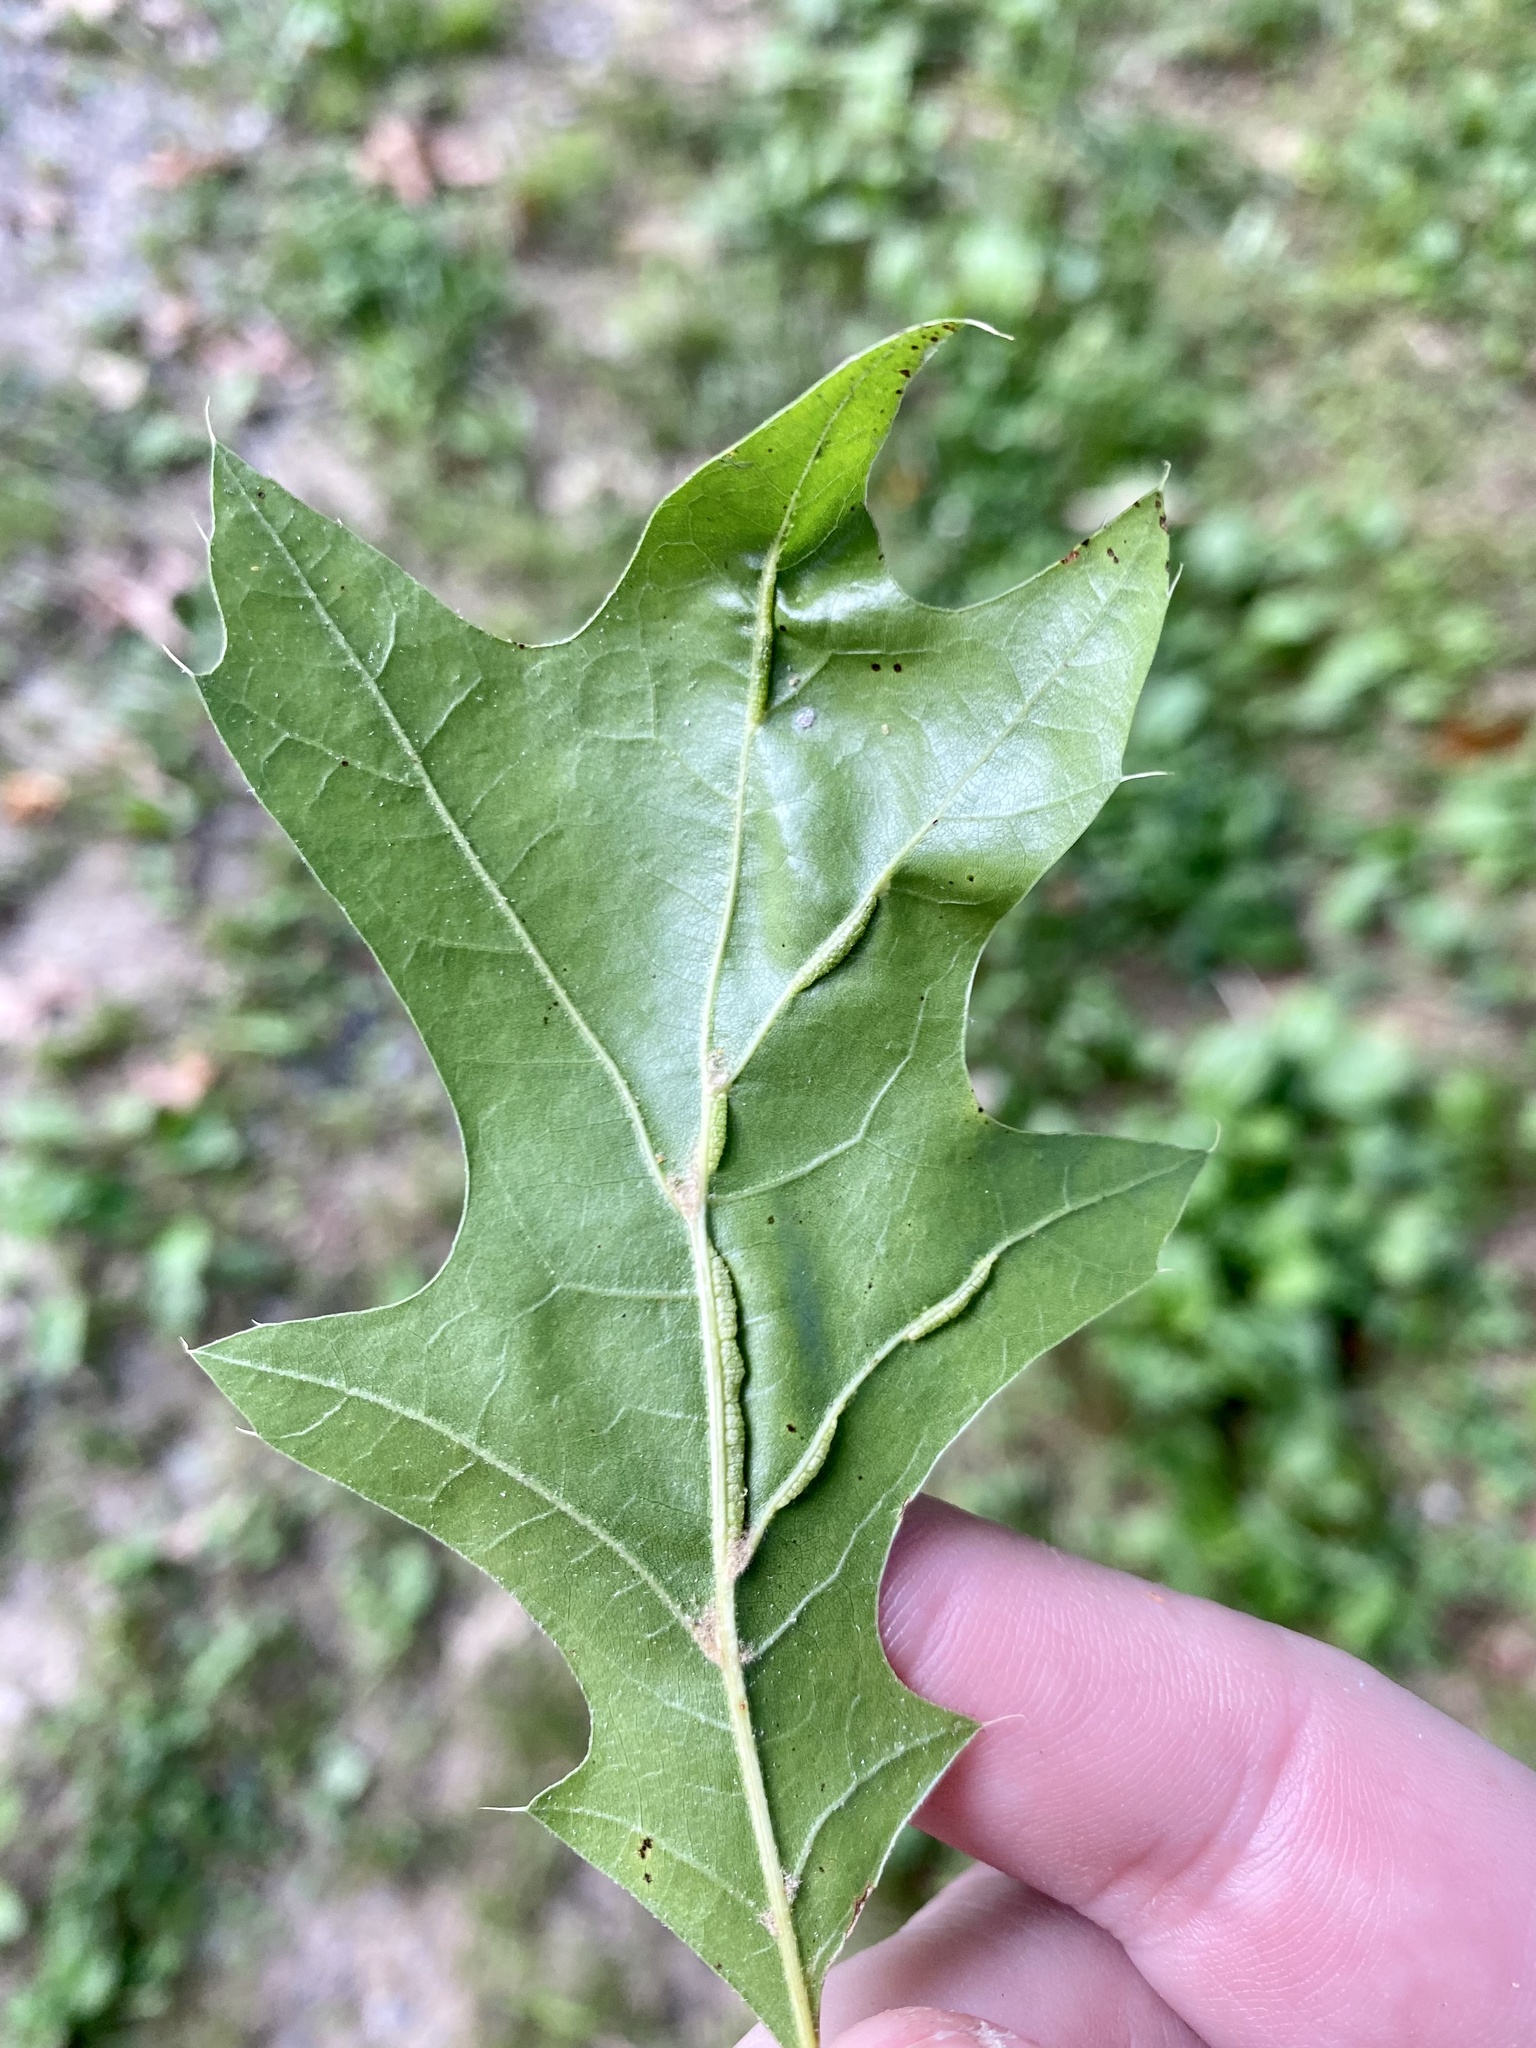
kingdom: Animalia
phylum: Arthropoda
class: Insecta
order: Diptera
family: Cecidomyiidae
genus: Macrodiplosis
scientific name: Macrodiplosis q-orucum
